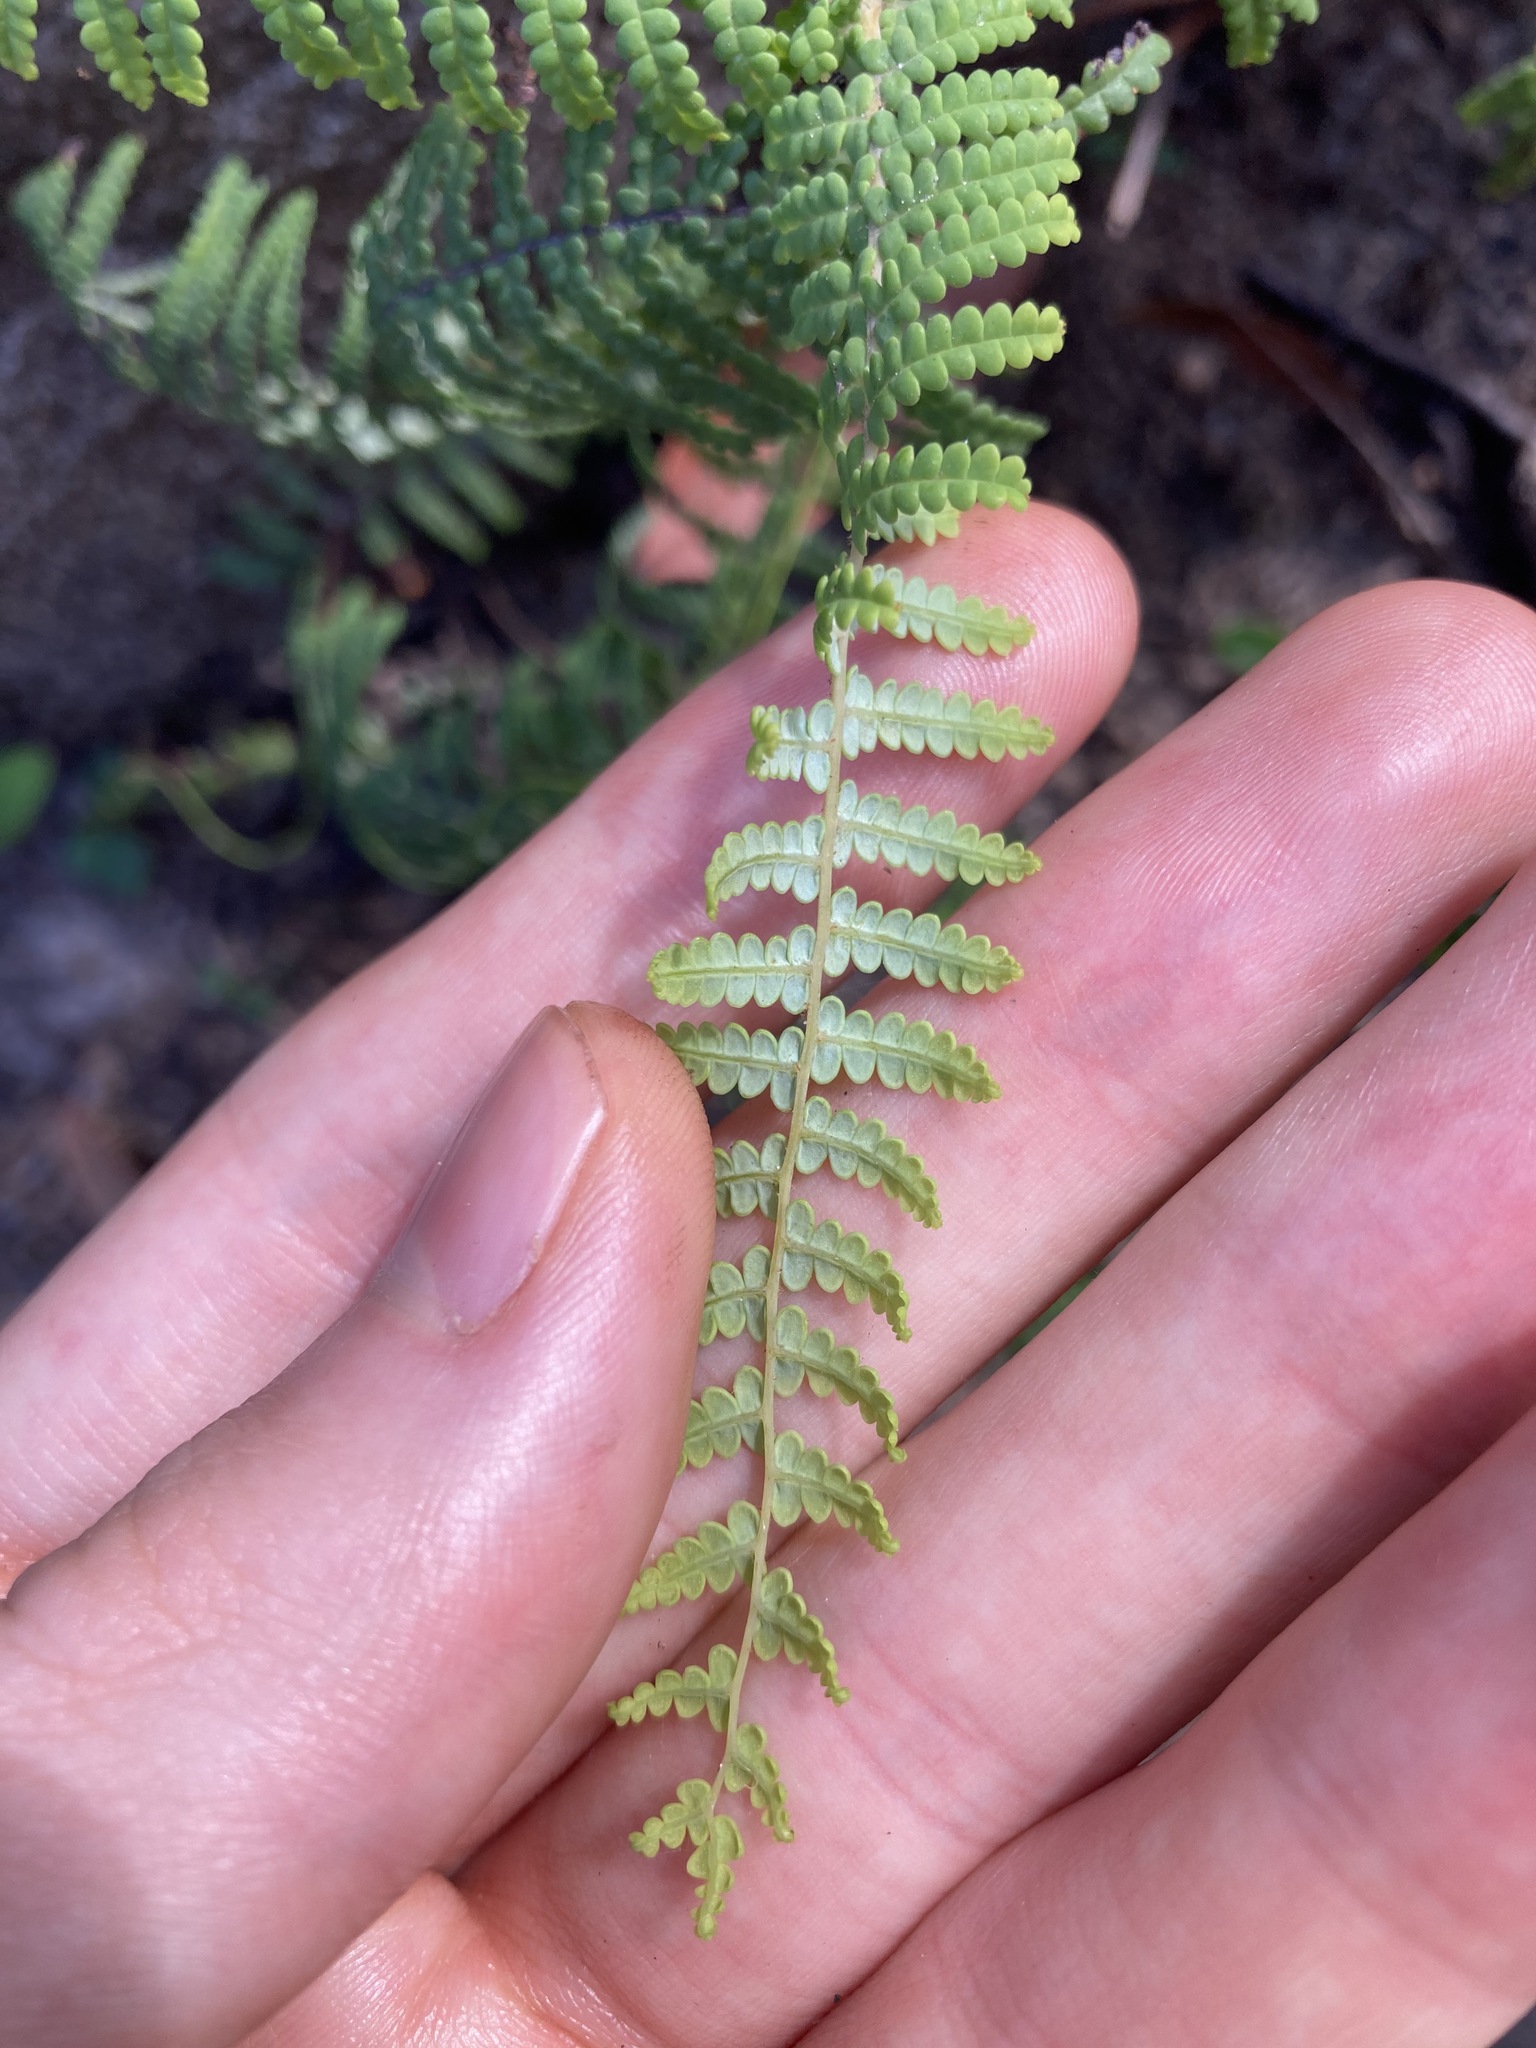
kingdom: Plantae
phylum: Tracheophyta
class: Polypodiopsida
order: Gleicheniales
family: Gleicheniaceae
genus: Gleichenia
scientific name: Gleichenia rupestris
